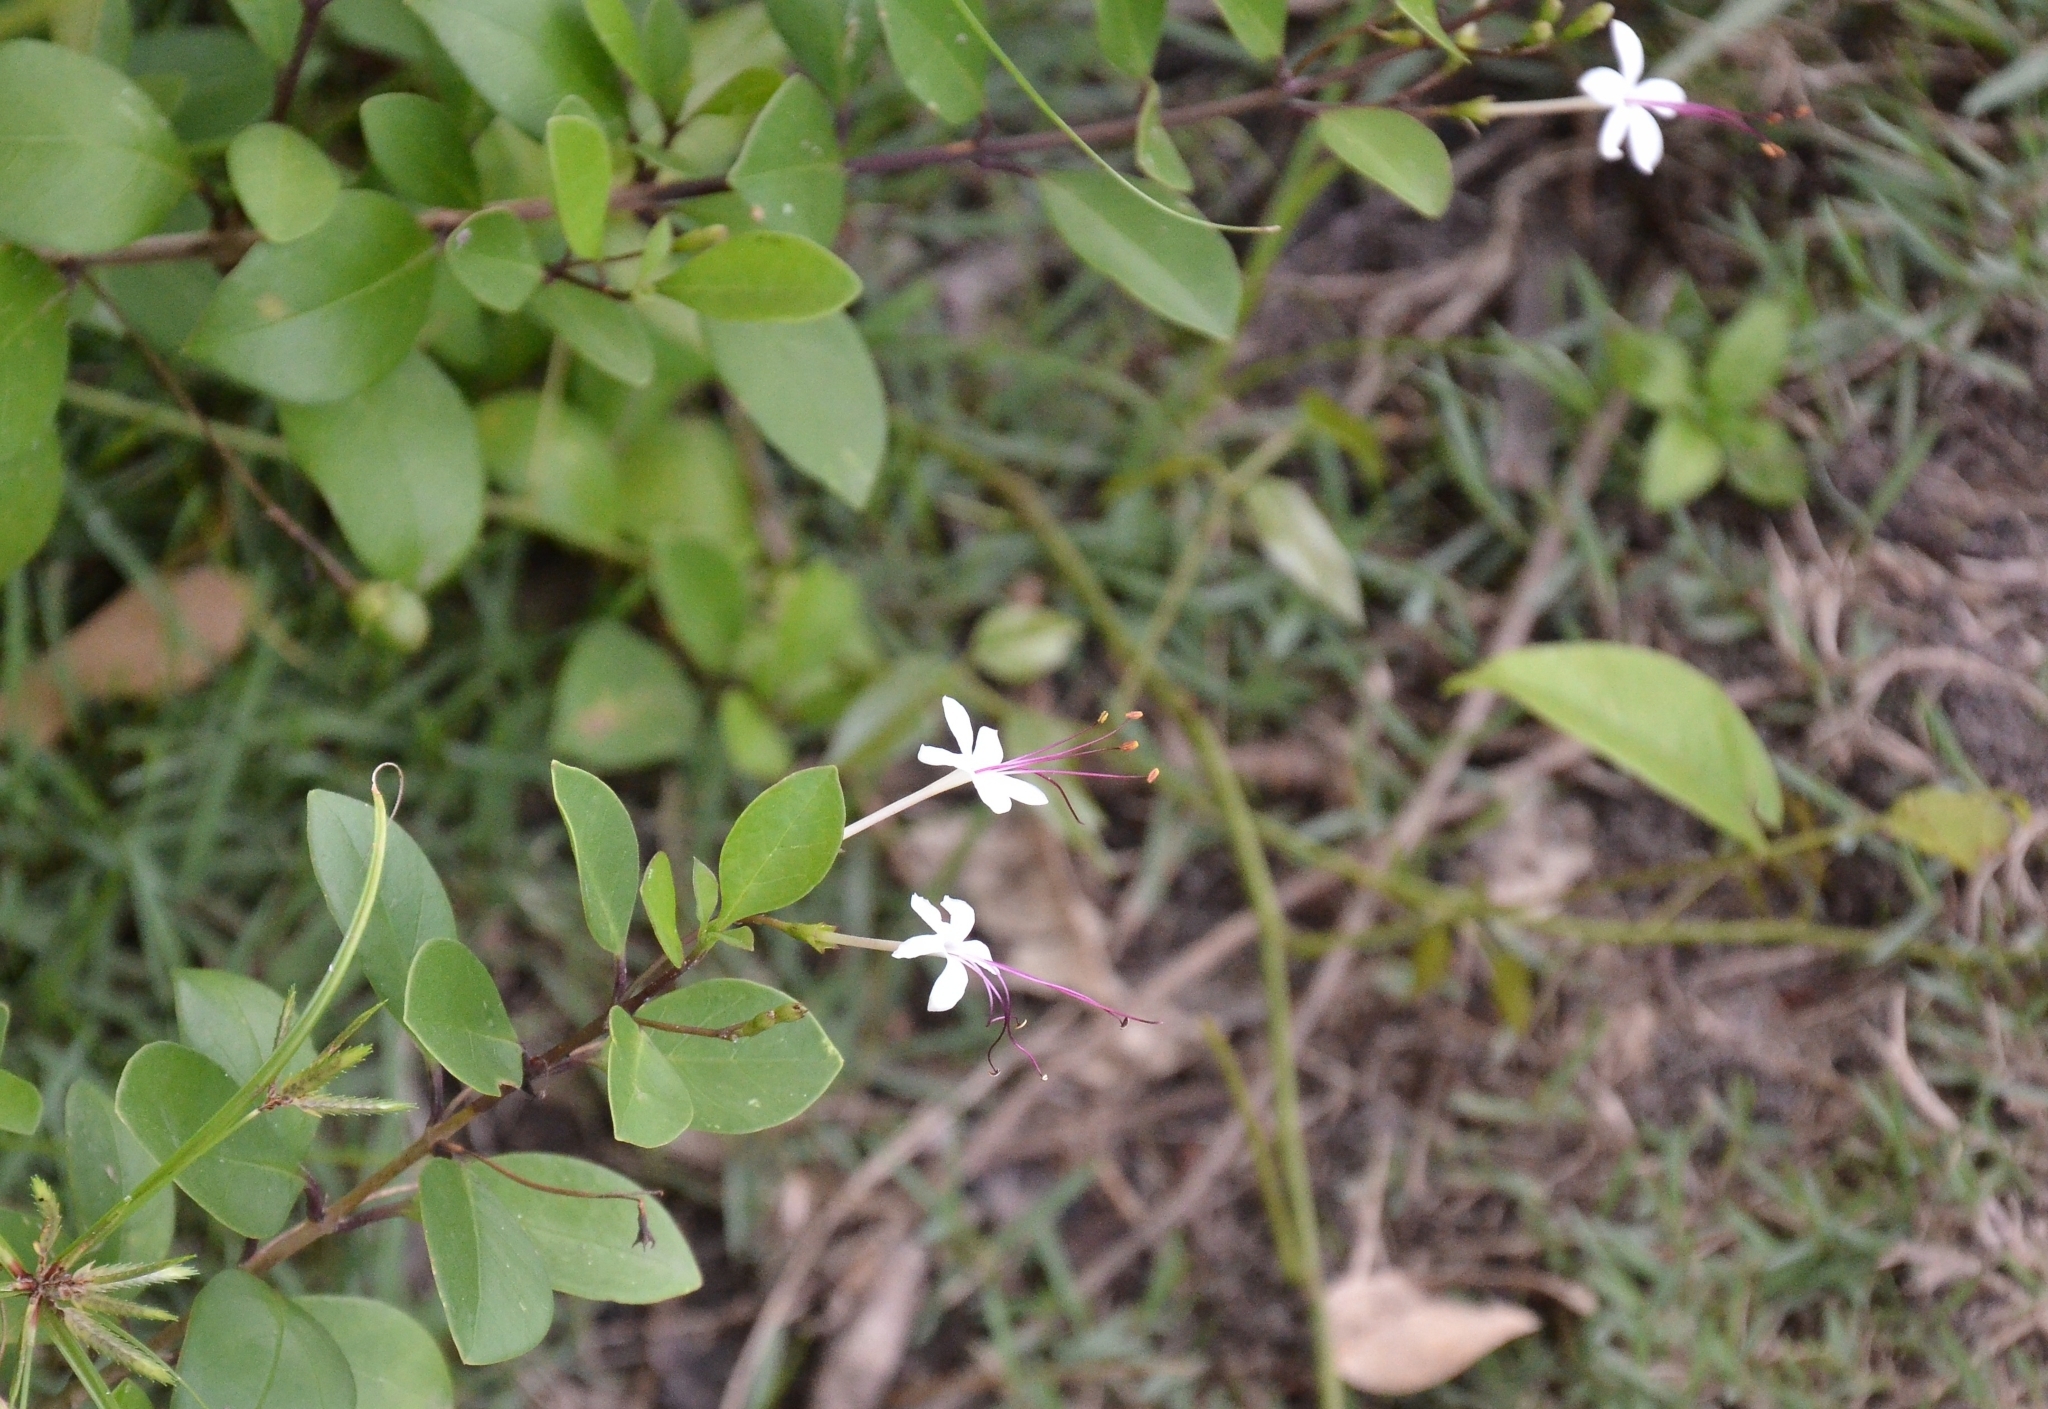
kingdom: Plantae
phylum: Tracheophyta
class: Magnoliopsida
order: Lamiales
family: Lamiaceae
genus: Volkameria
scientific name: Volkameria inermis
